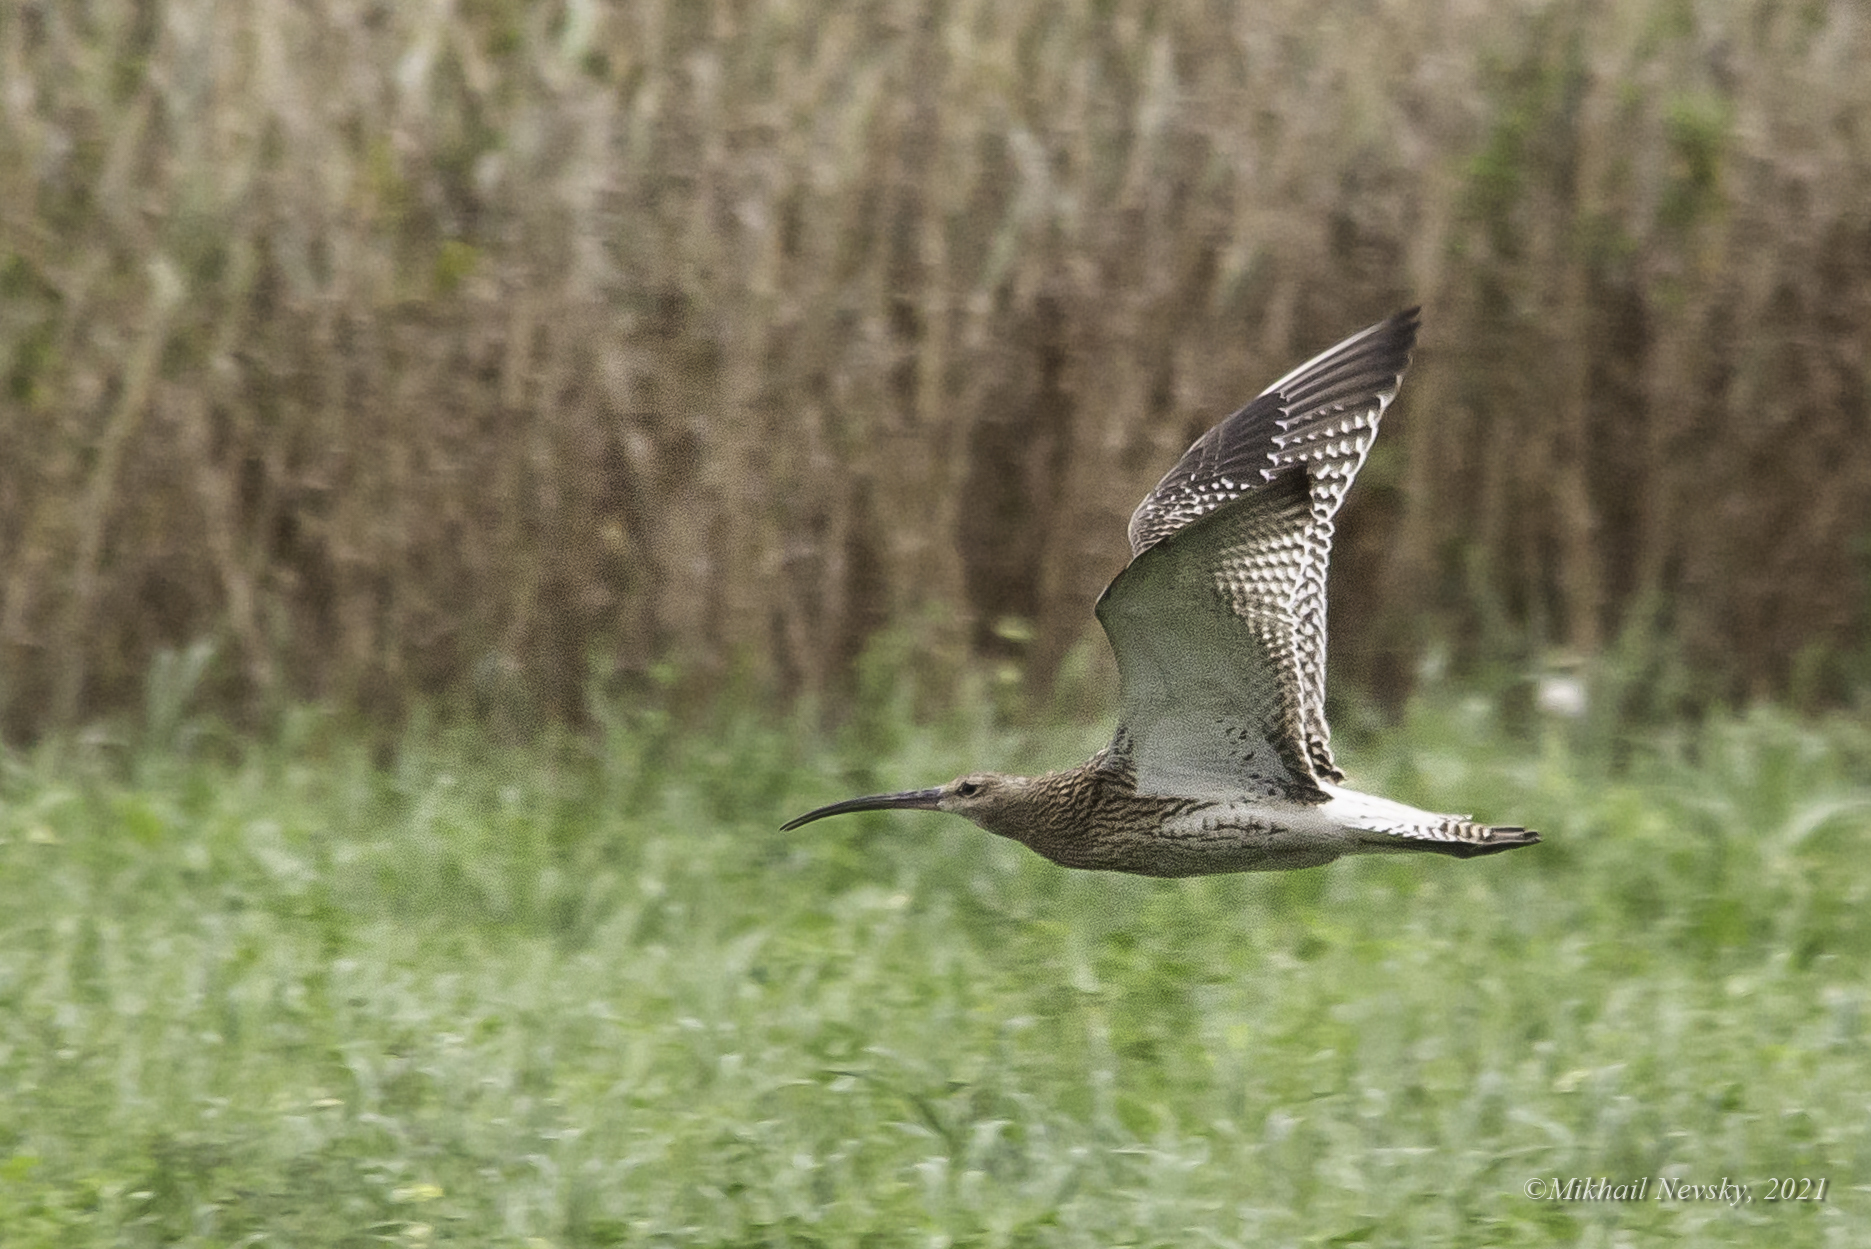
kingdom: Animalia
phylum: Chordata
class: Aves
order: Charadriiformes
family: Scolopacidae
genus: Numenius
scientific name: Numenius arquata
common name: Eurasian curlew
